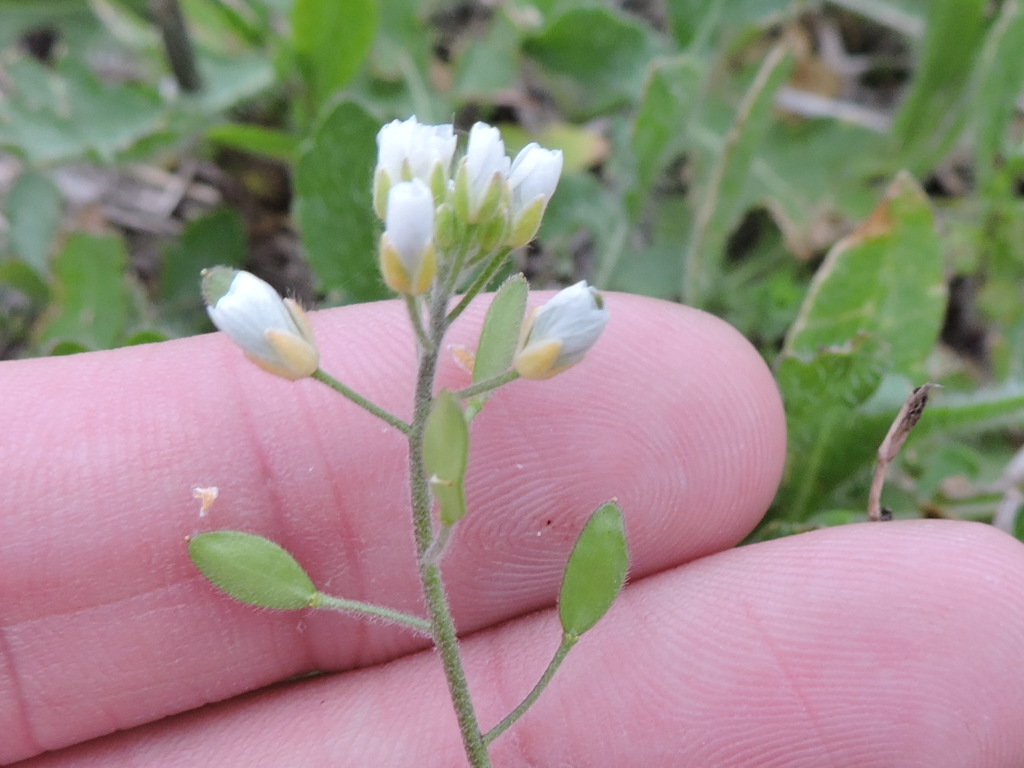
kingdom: Plantae
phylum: Tracheophyta
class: Magnoliopsida
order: Brassicales
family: Brassicaceae
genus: Tomostima
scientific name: Tomostima platycarpa
